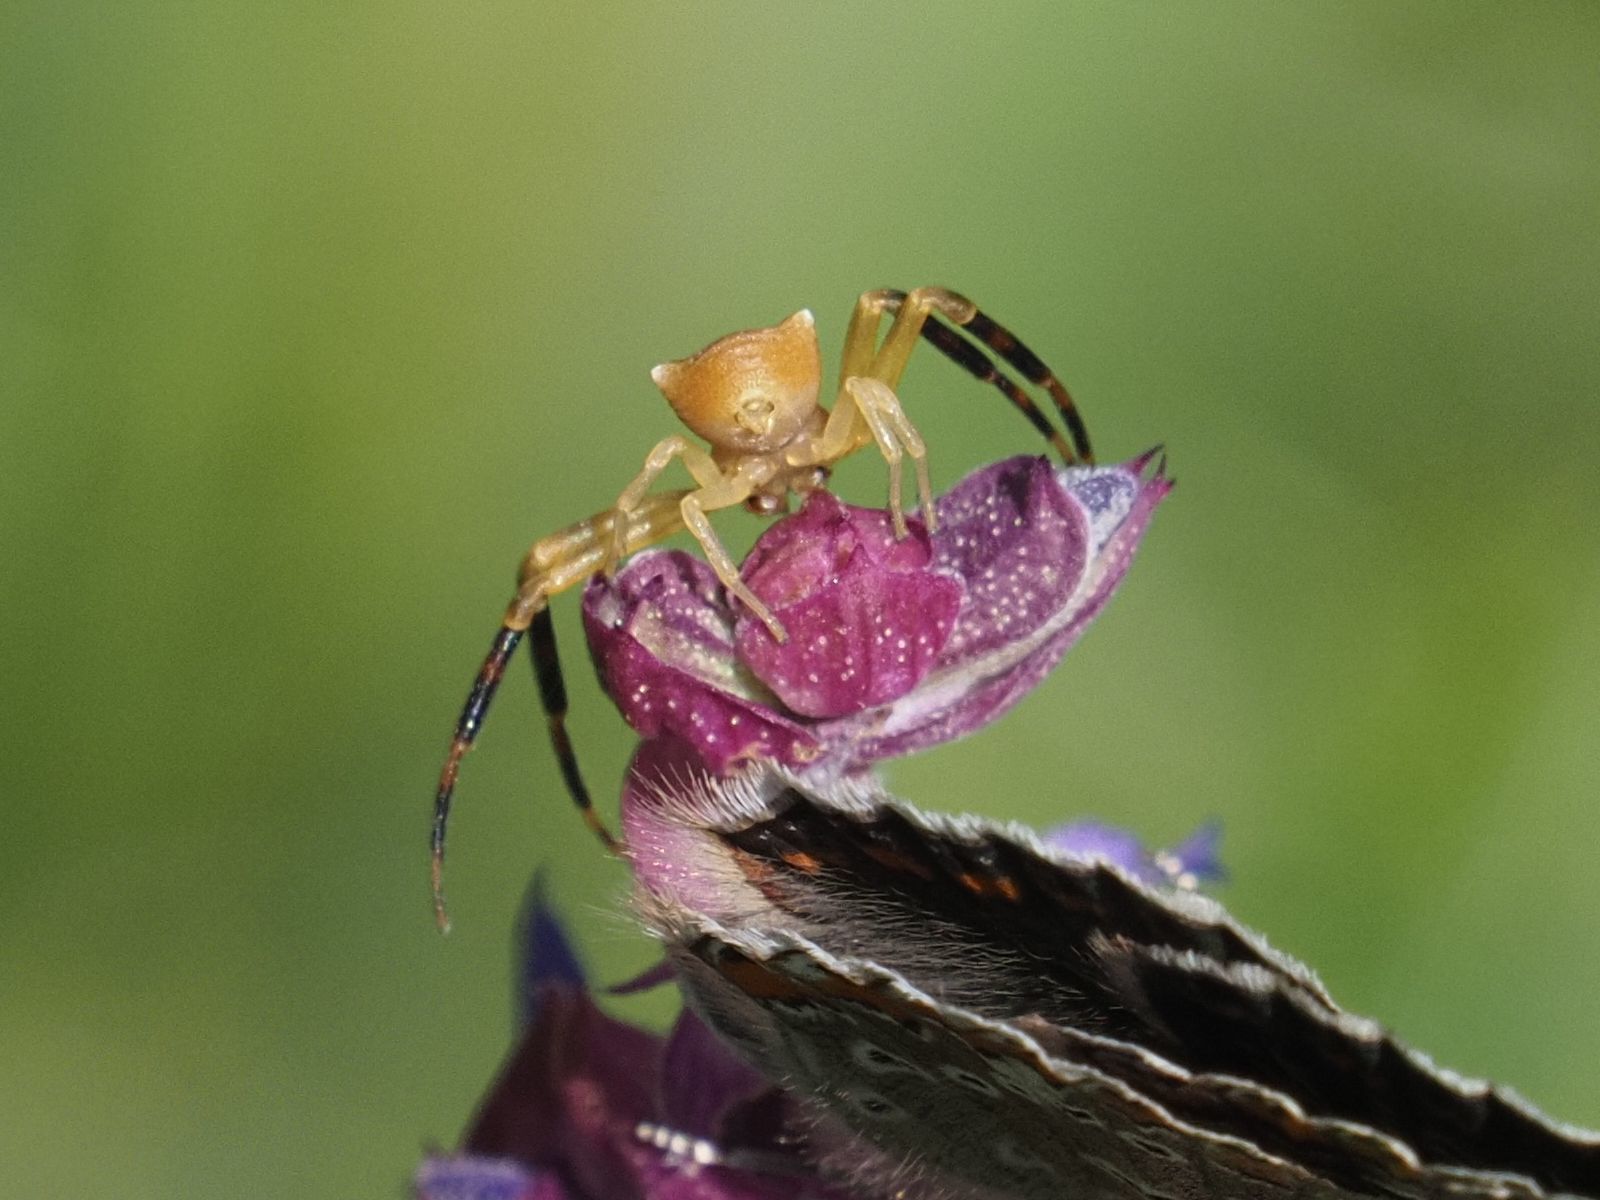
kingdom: Animalia
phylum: Arthropoda
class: Arachnida
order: Araneae
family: Thomisidae
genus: Thomisus
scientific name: Thomisus onustus
